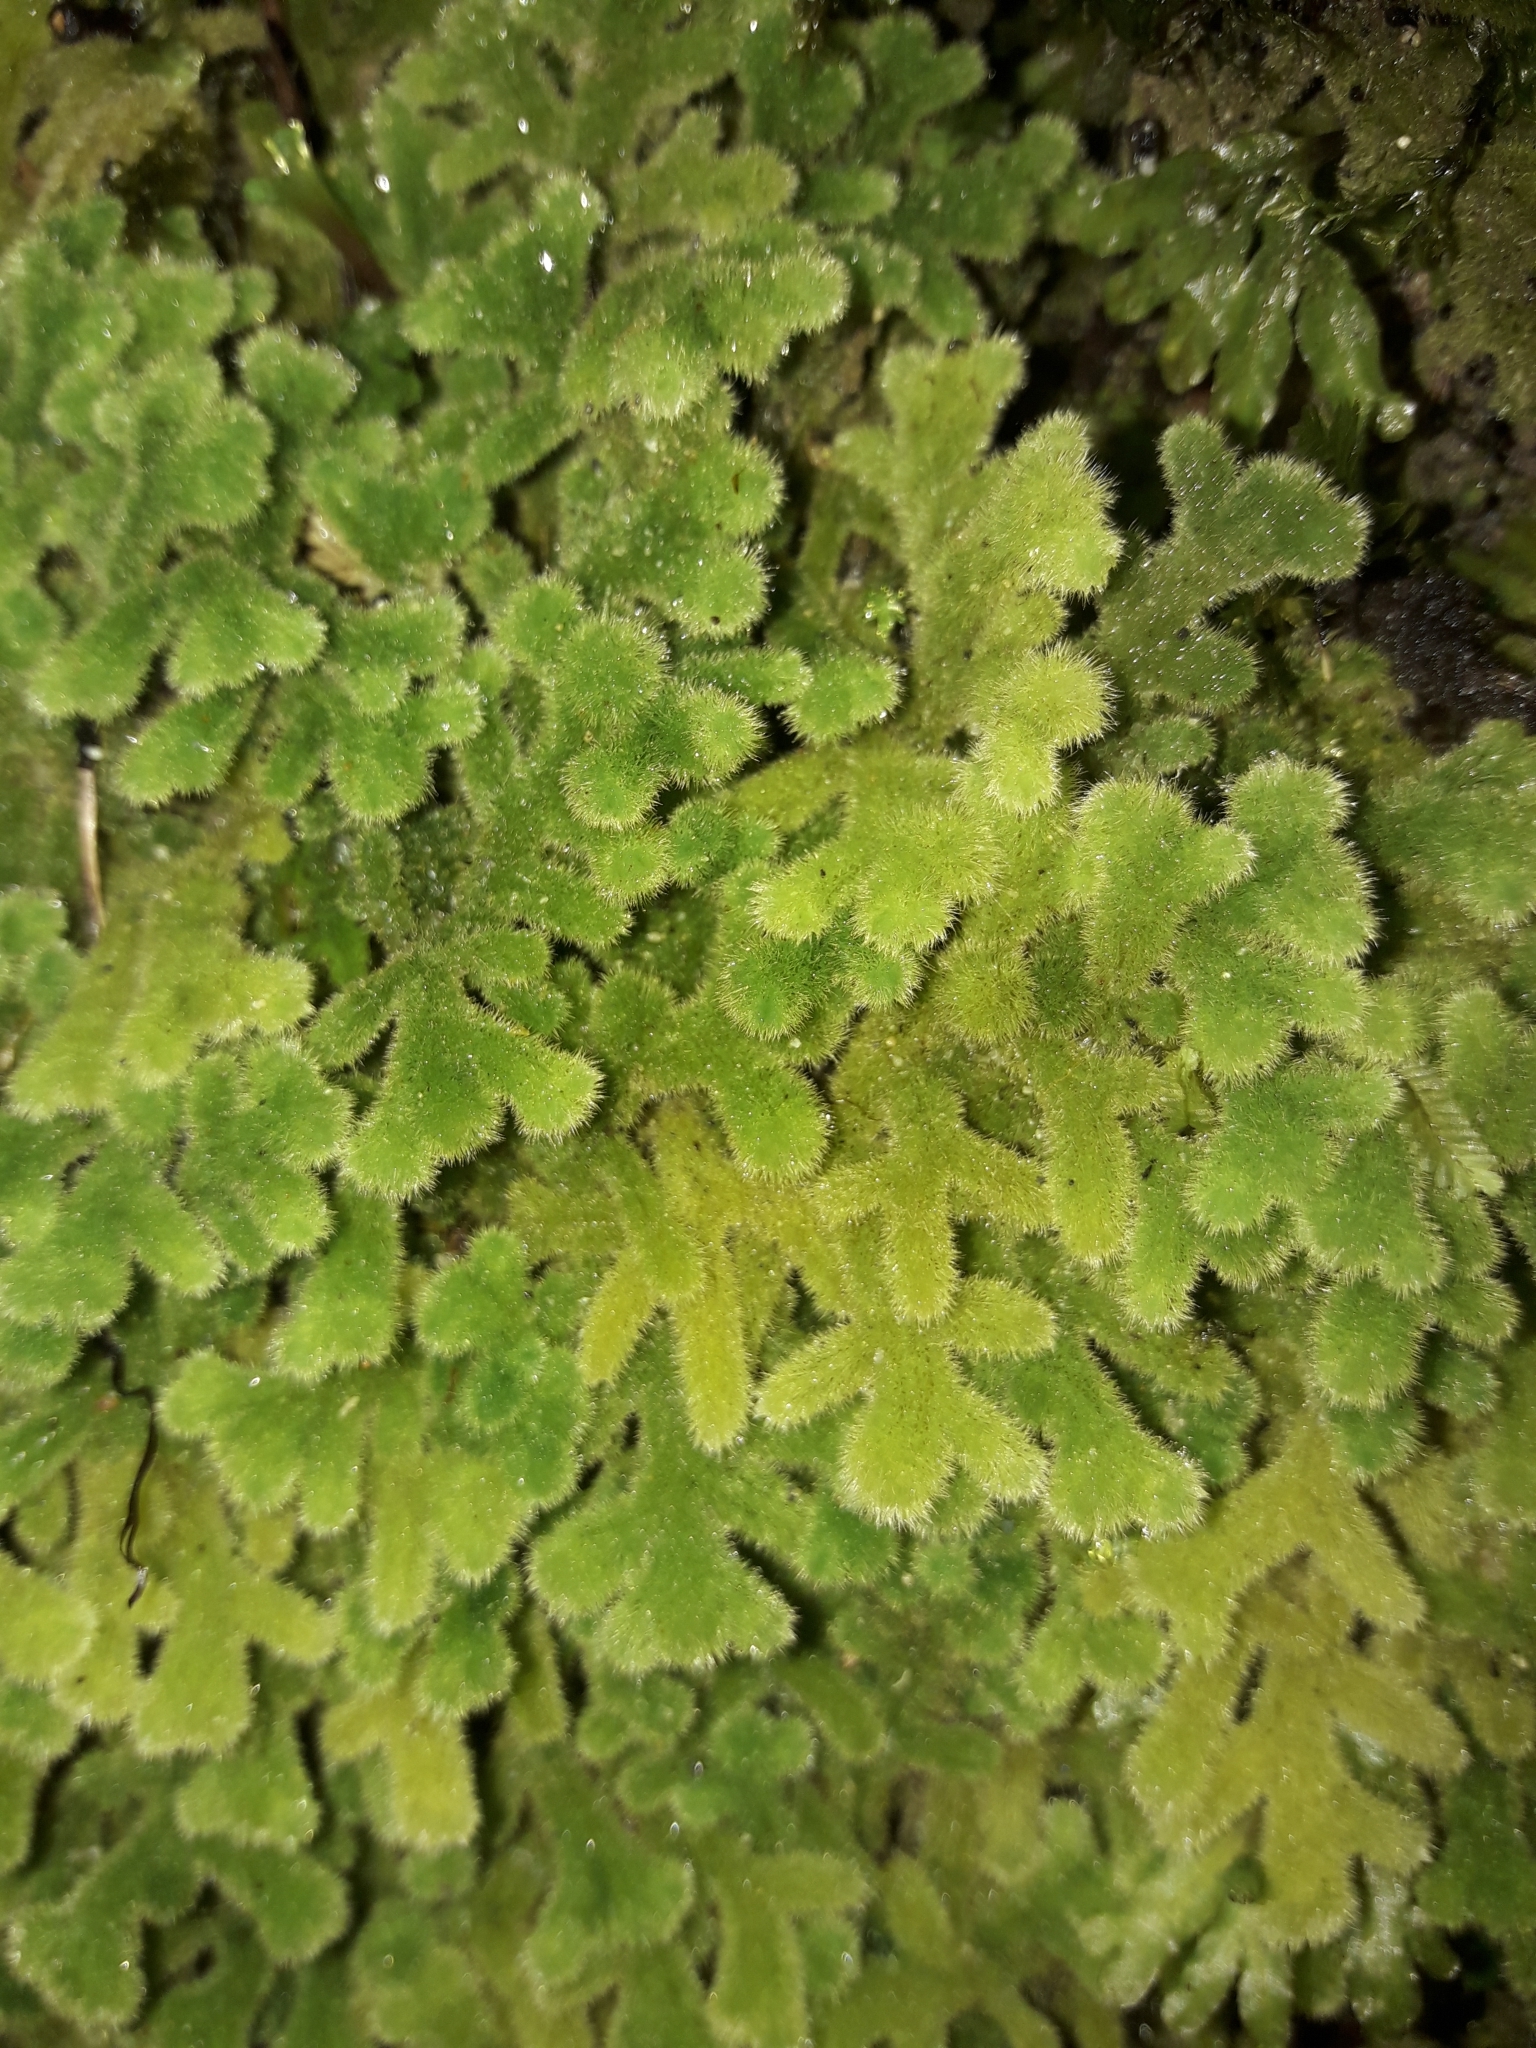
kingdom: Plantae
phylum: Marchantiophyta
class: Jungermanniopsida
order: Jungermanniales
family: Trichocoleaceae
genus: Leiomitra
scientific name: Leiomitra lanata
